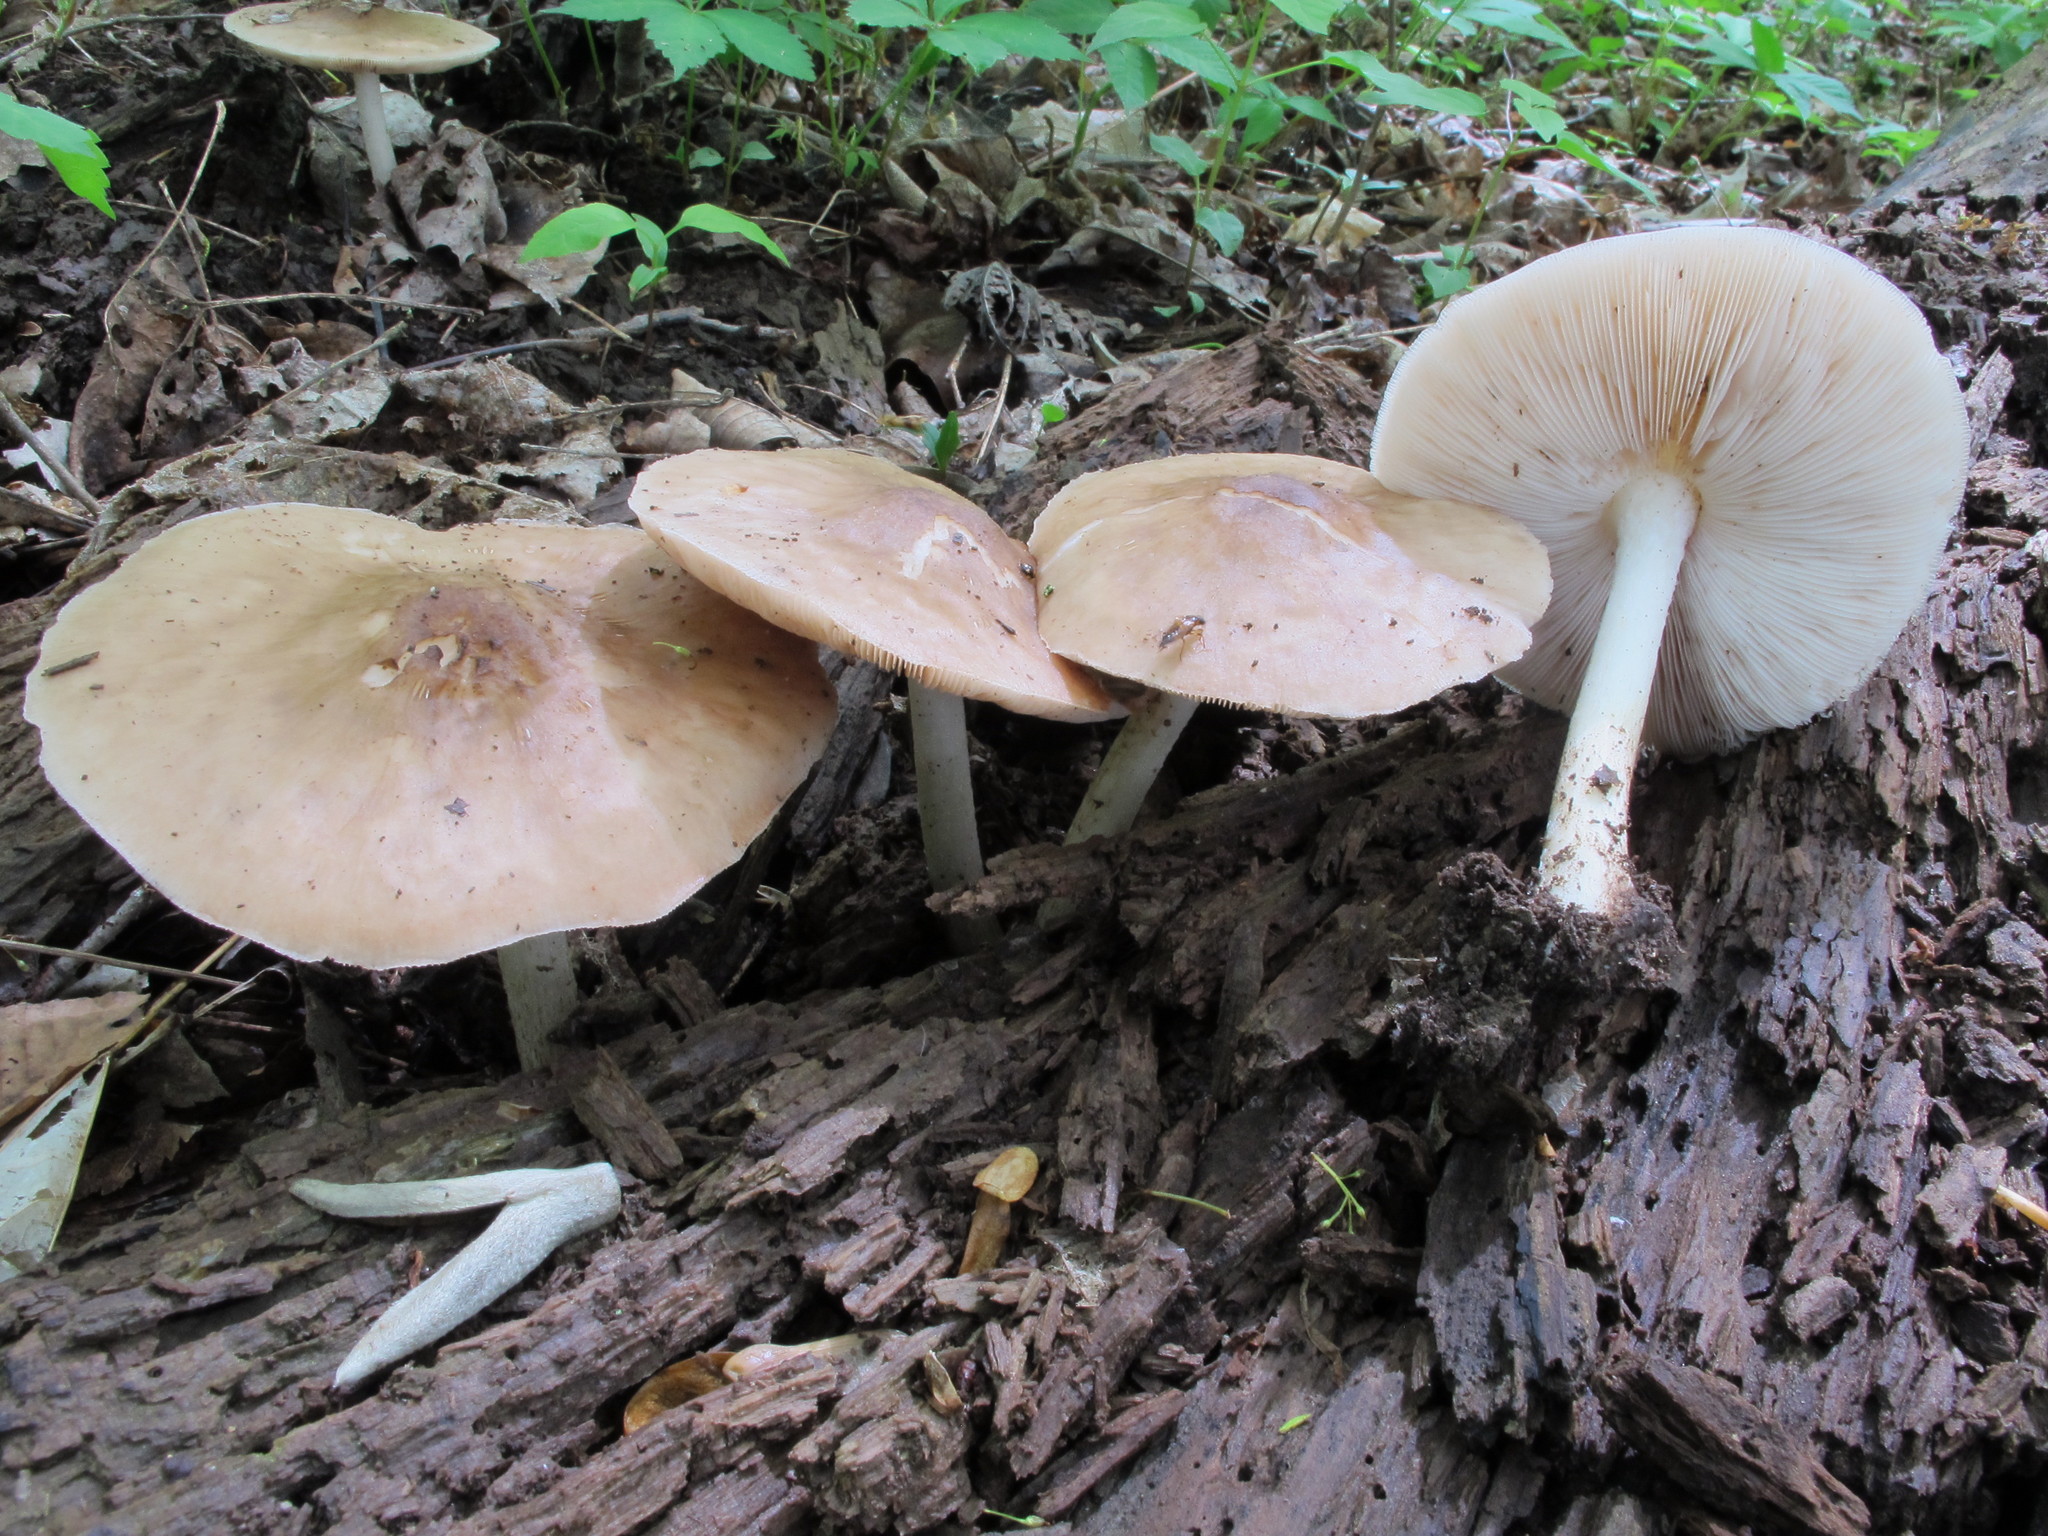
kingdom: Fungi
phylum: Basidiomycota
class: Agaricomycetes
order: Agaricales
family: Pluteaceae
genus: Pluteus
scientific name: Pluteus cervinus
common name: Deer shield
